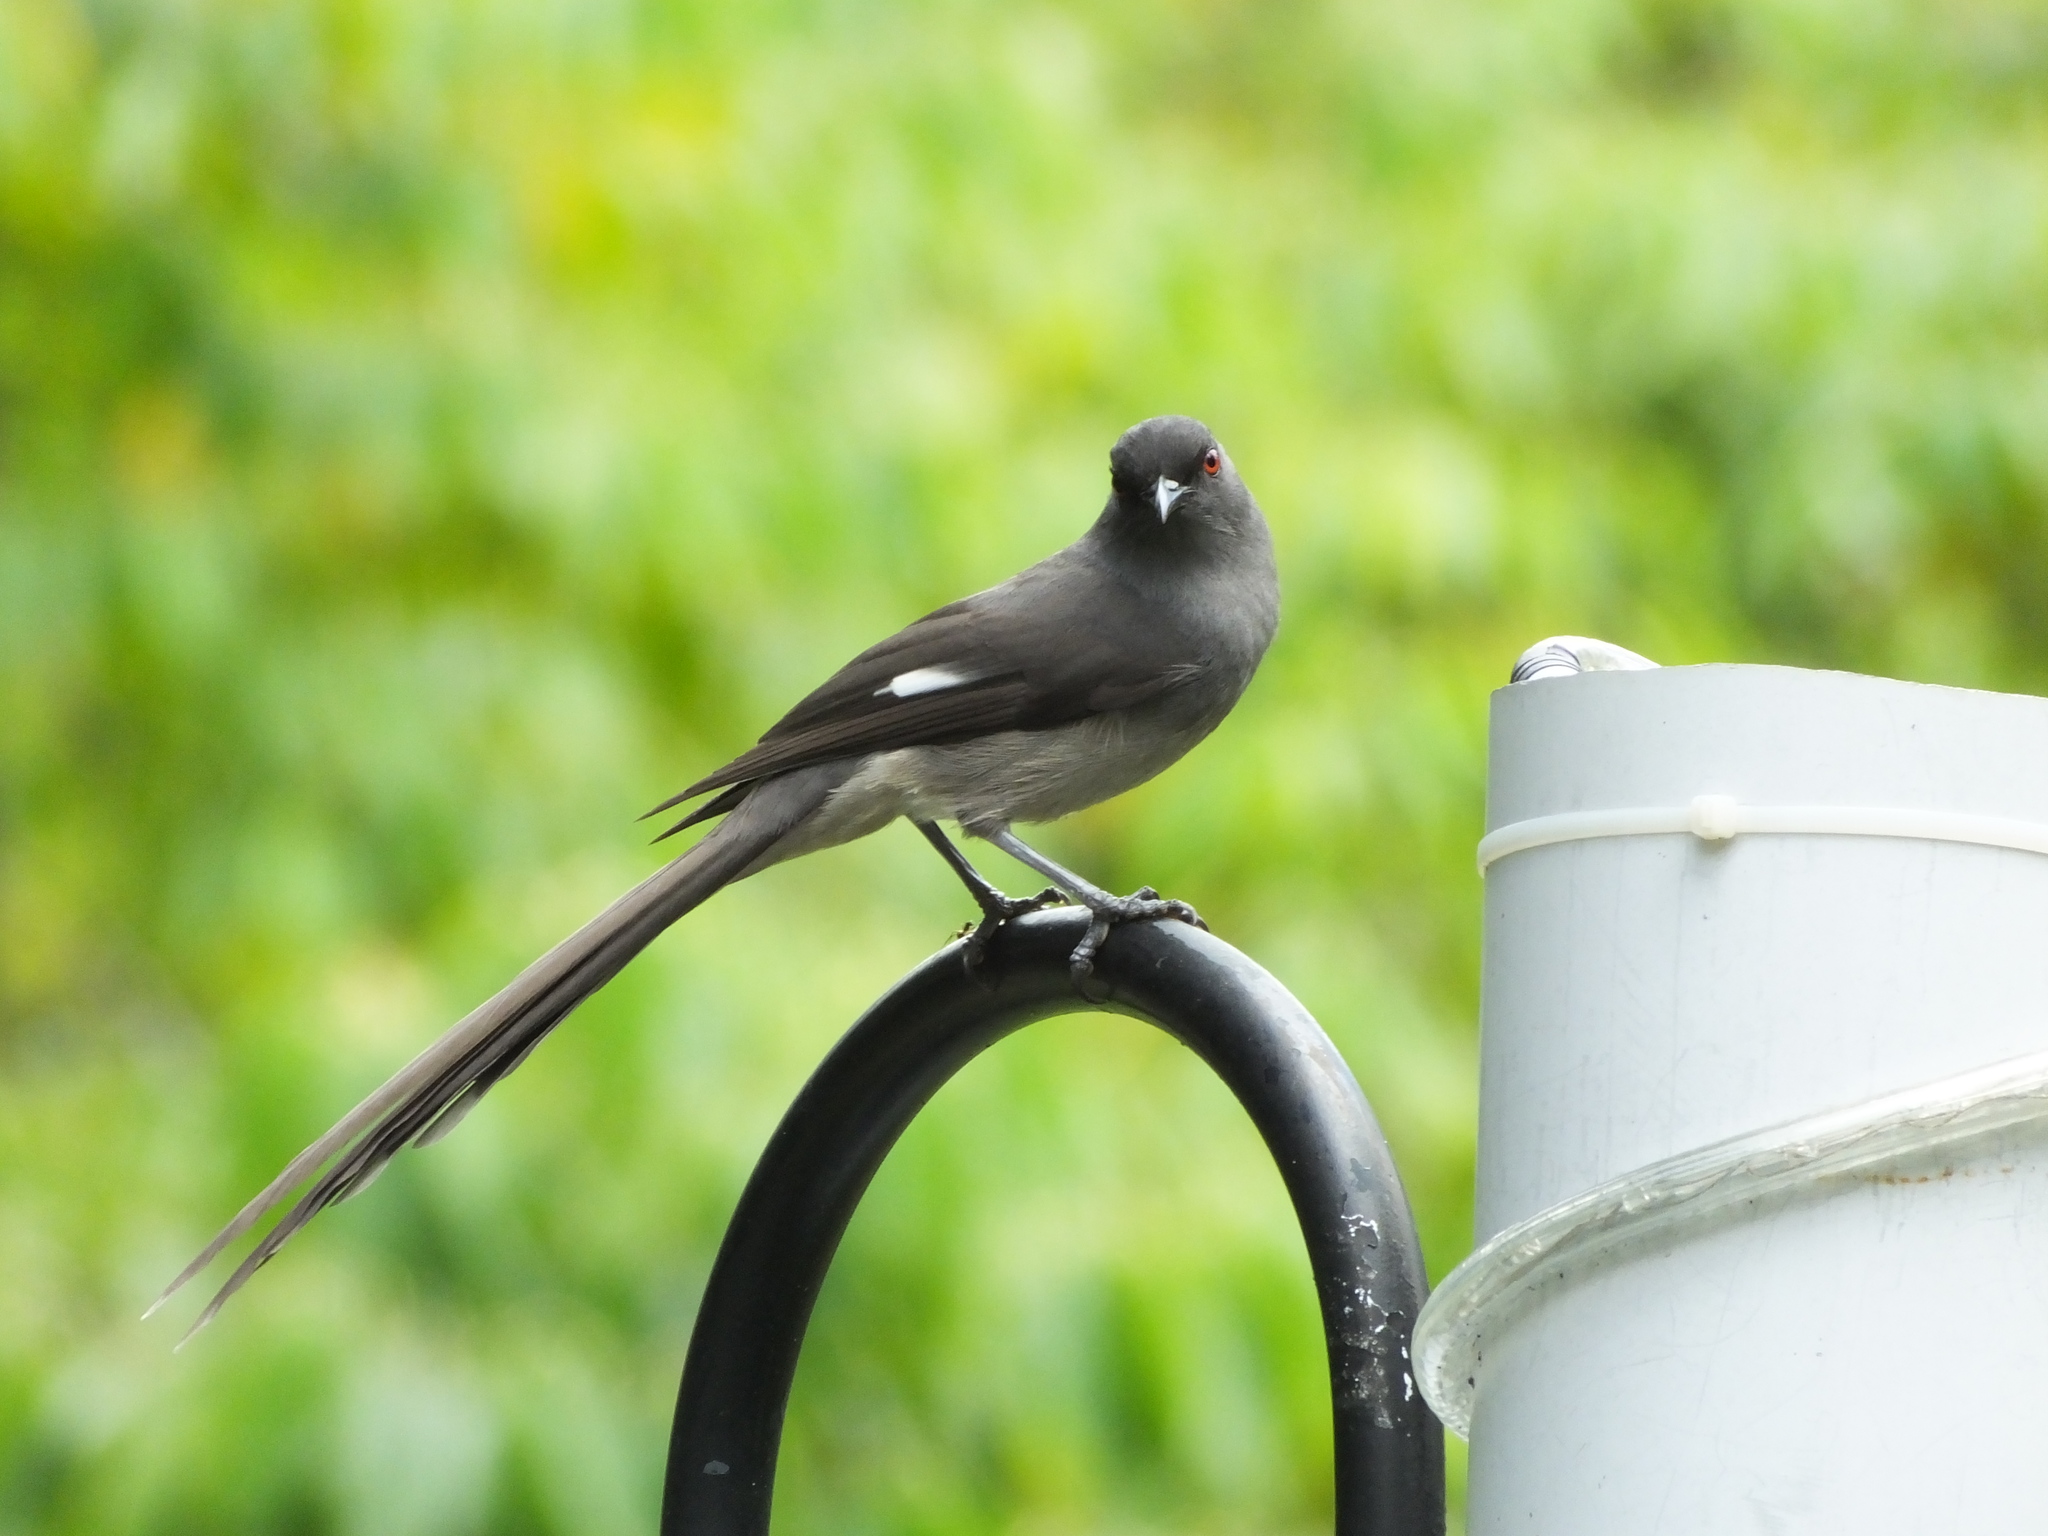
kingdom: Animalia
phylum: Chordata
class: Aves
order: Passeriformes
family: Leiothrichidae
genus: Heterophasia
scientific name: Heterophasia picaoides
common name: Long-tailed sibia
